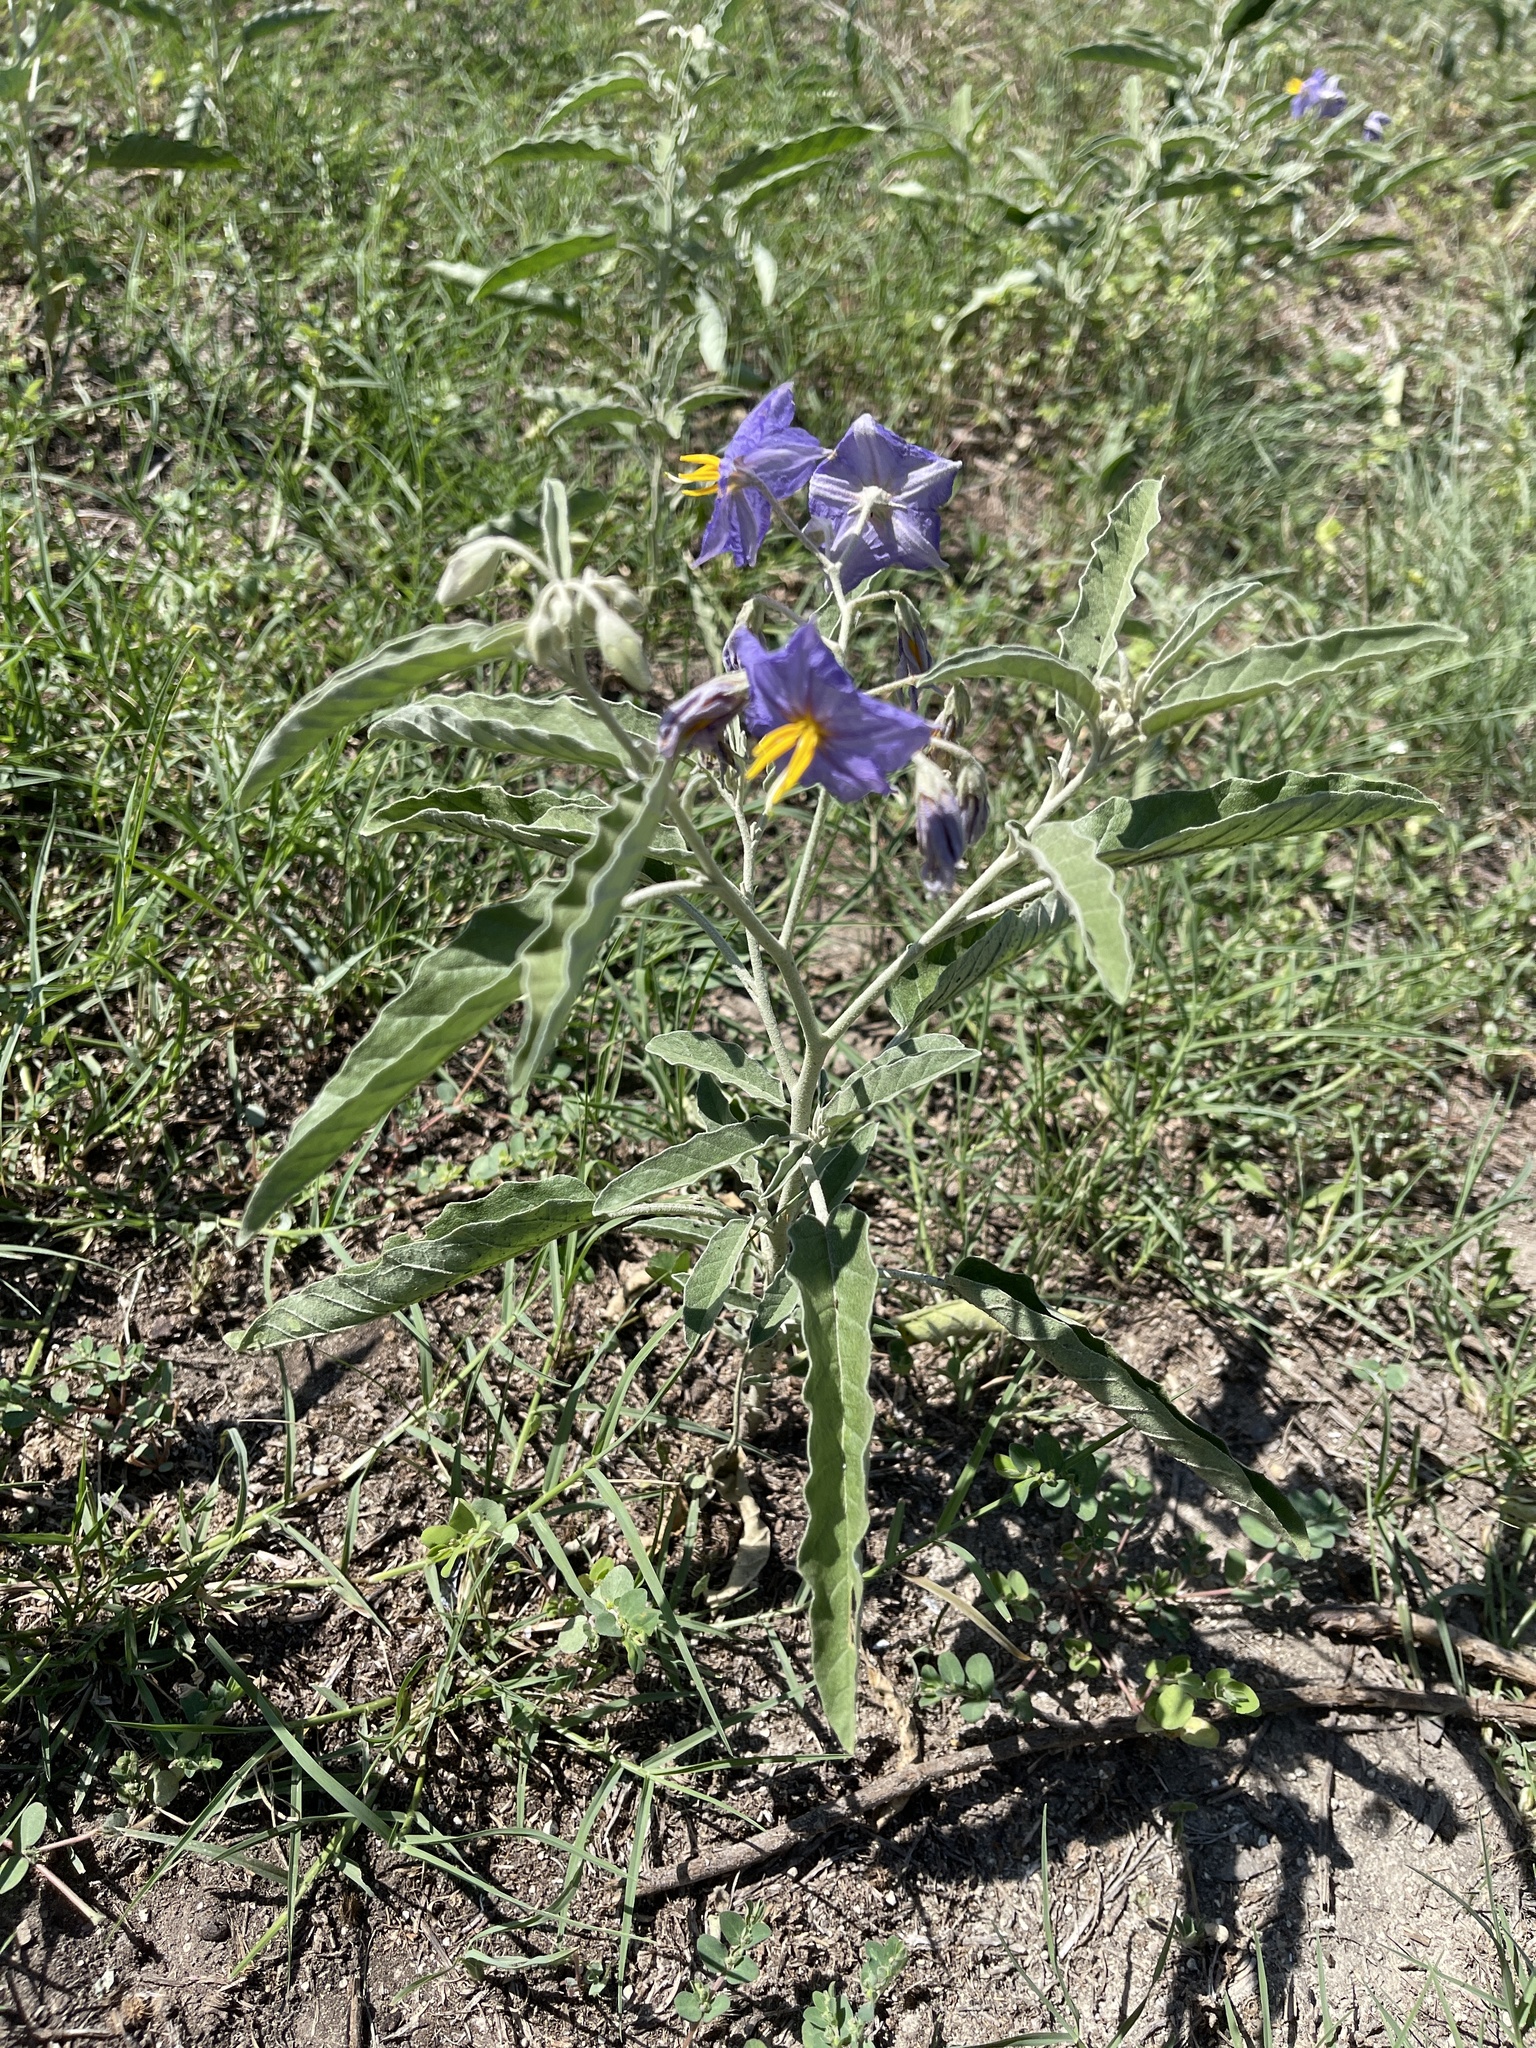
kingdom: Plantae
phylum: Tracheophyta
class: Magnoliopsida
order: Solanales
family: Solanaceae
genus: Solanum
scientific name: Solanum elaeagnifolium
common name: Silverleaf nightshade
